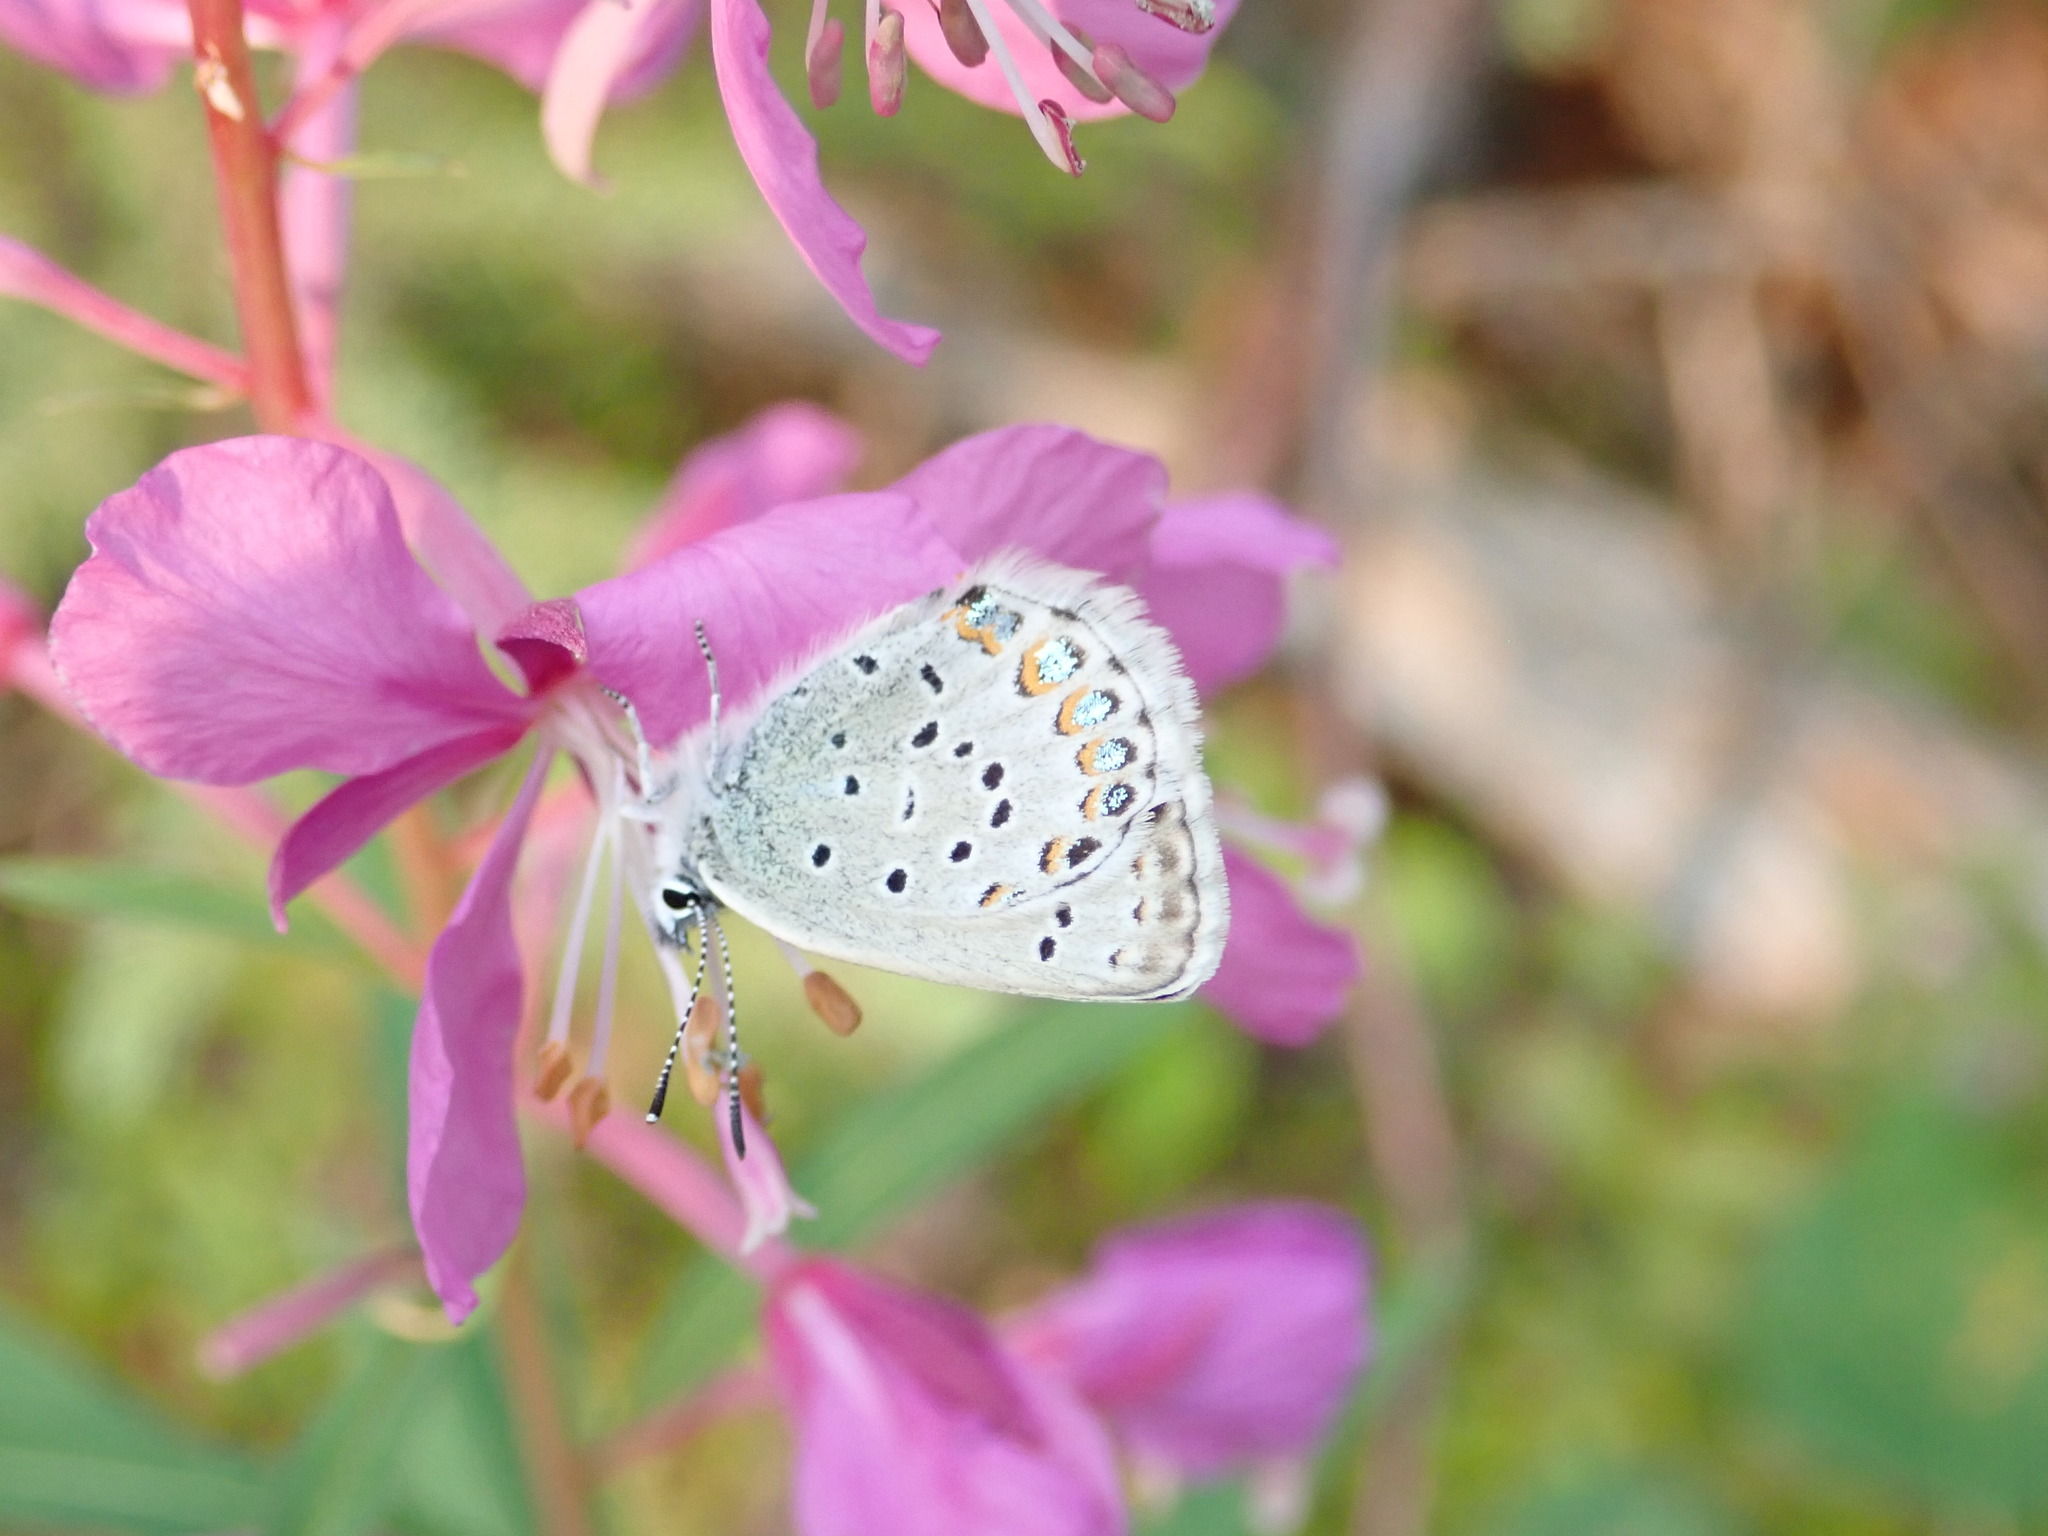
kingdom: Animalia
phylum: Arthropoda
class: Insecta
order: Lepidoptera
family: Lycaenidae
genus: Lycaeides
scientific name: Lycaeides idas
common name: Northern blue
